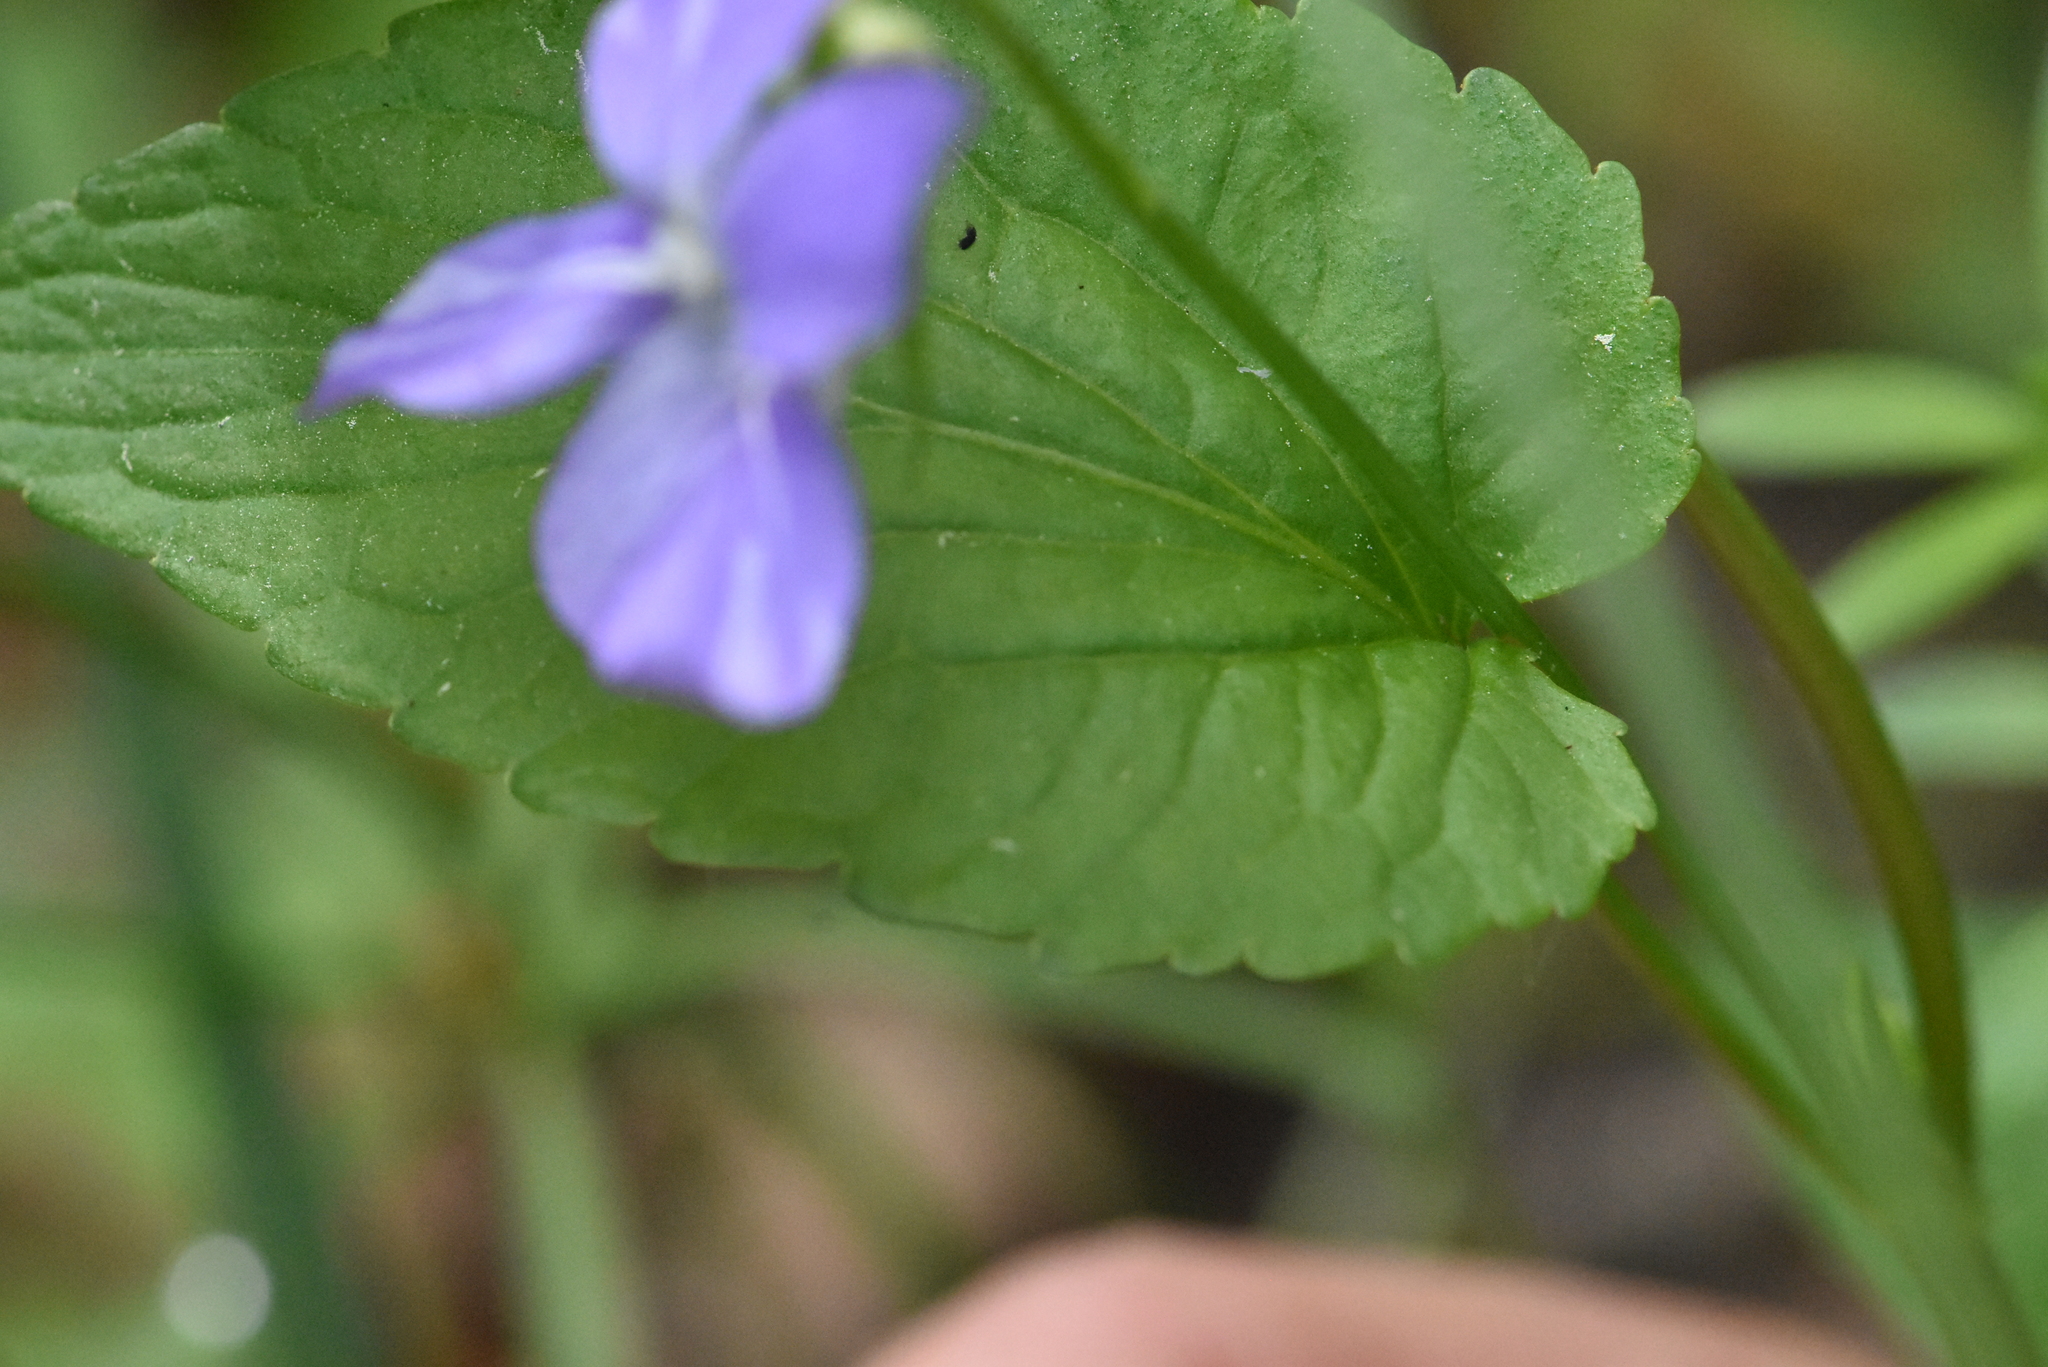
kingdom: Plantae
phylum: Tracheophyta
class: Magnoliopsida
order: Malpighiales
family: Violaceae
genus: Viola
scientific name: Viola
